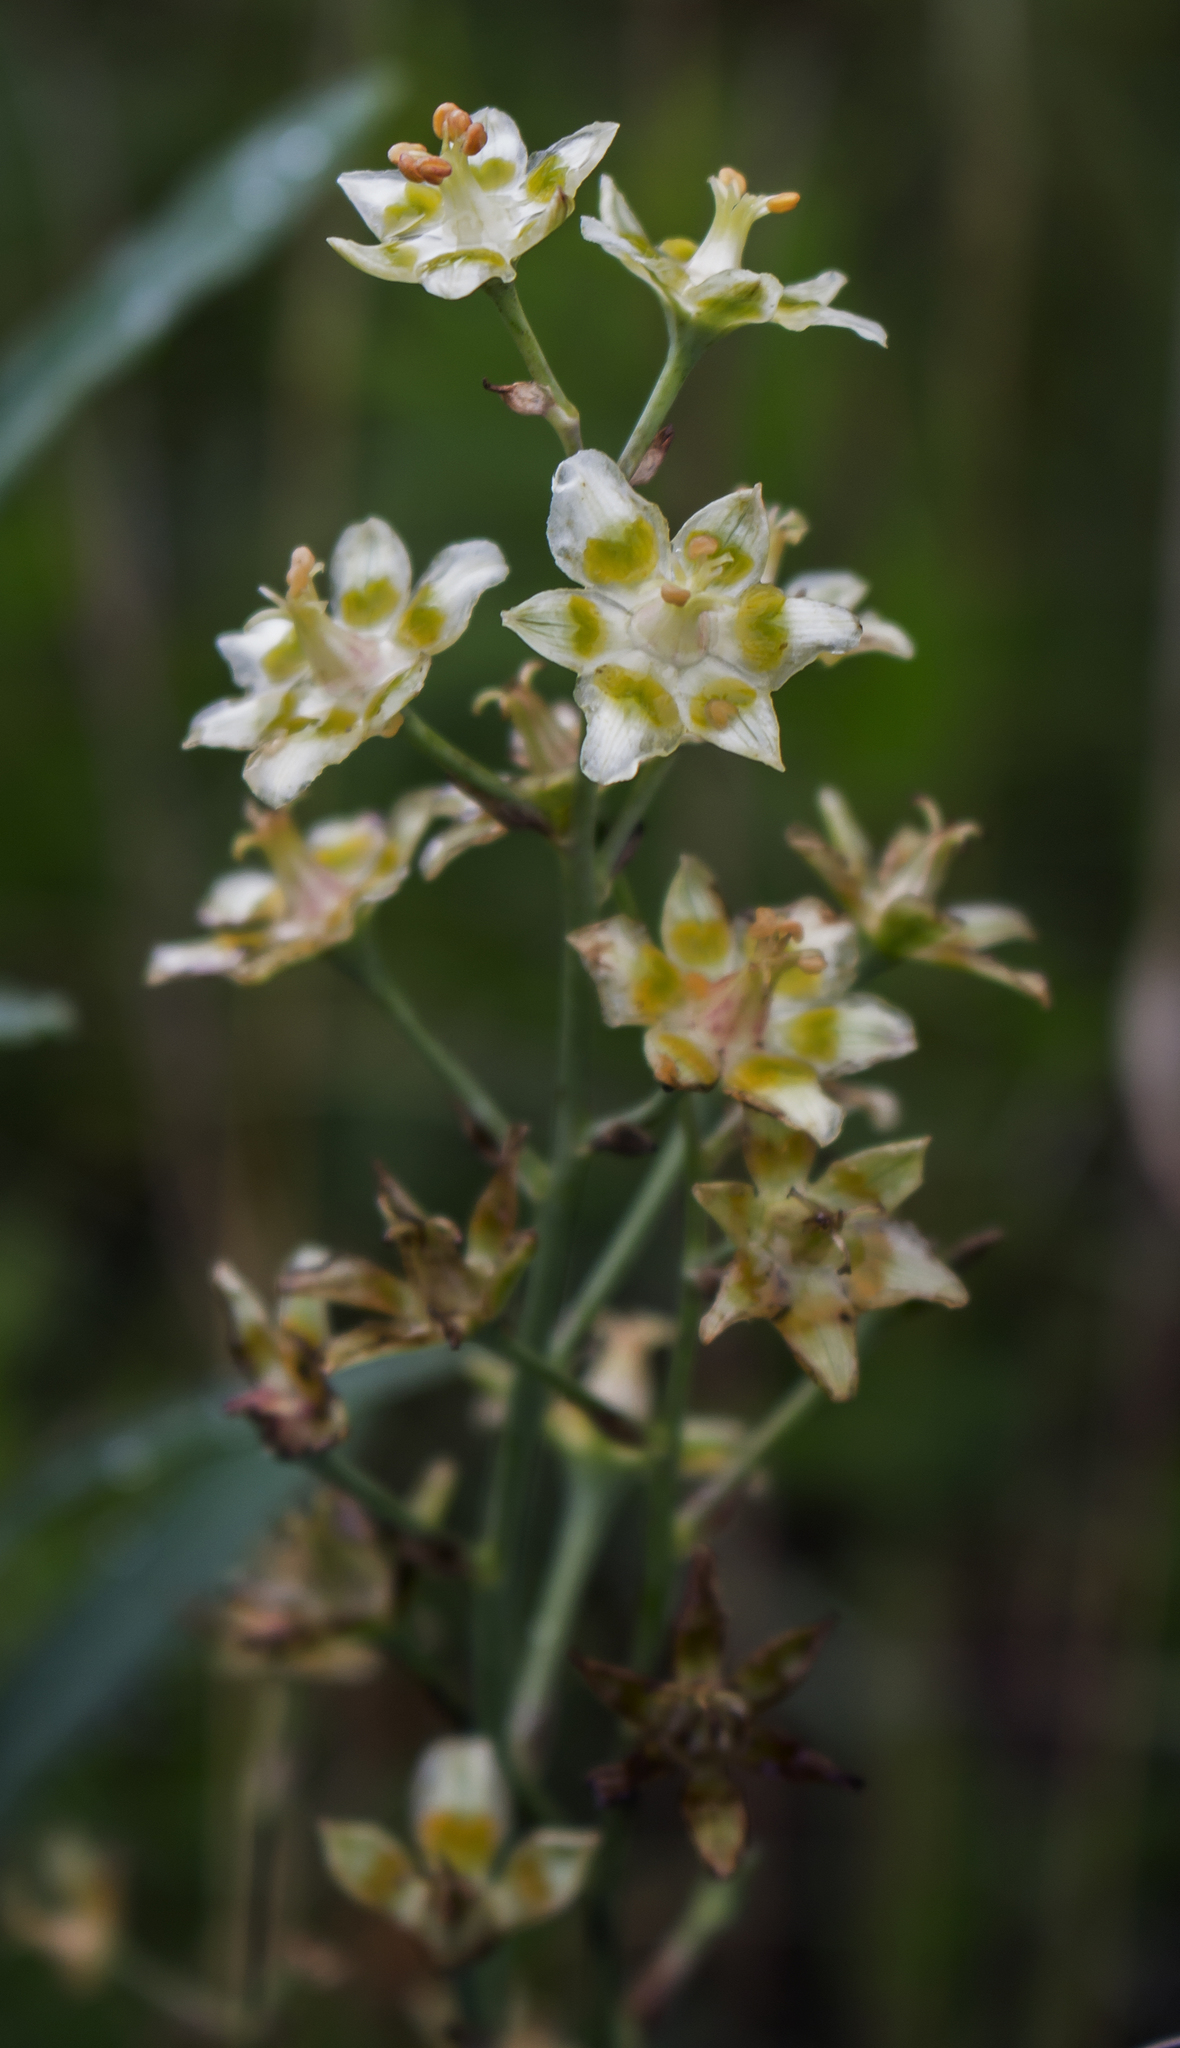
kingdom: Plantae
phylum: Tracheophyta
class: Liliopsida
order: Liliales
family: Melanthiaceae
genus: Anticlea
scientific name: Anticlea elegans
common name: Mountain death camas
